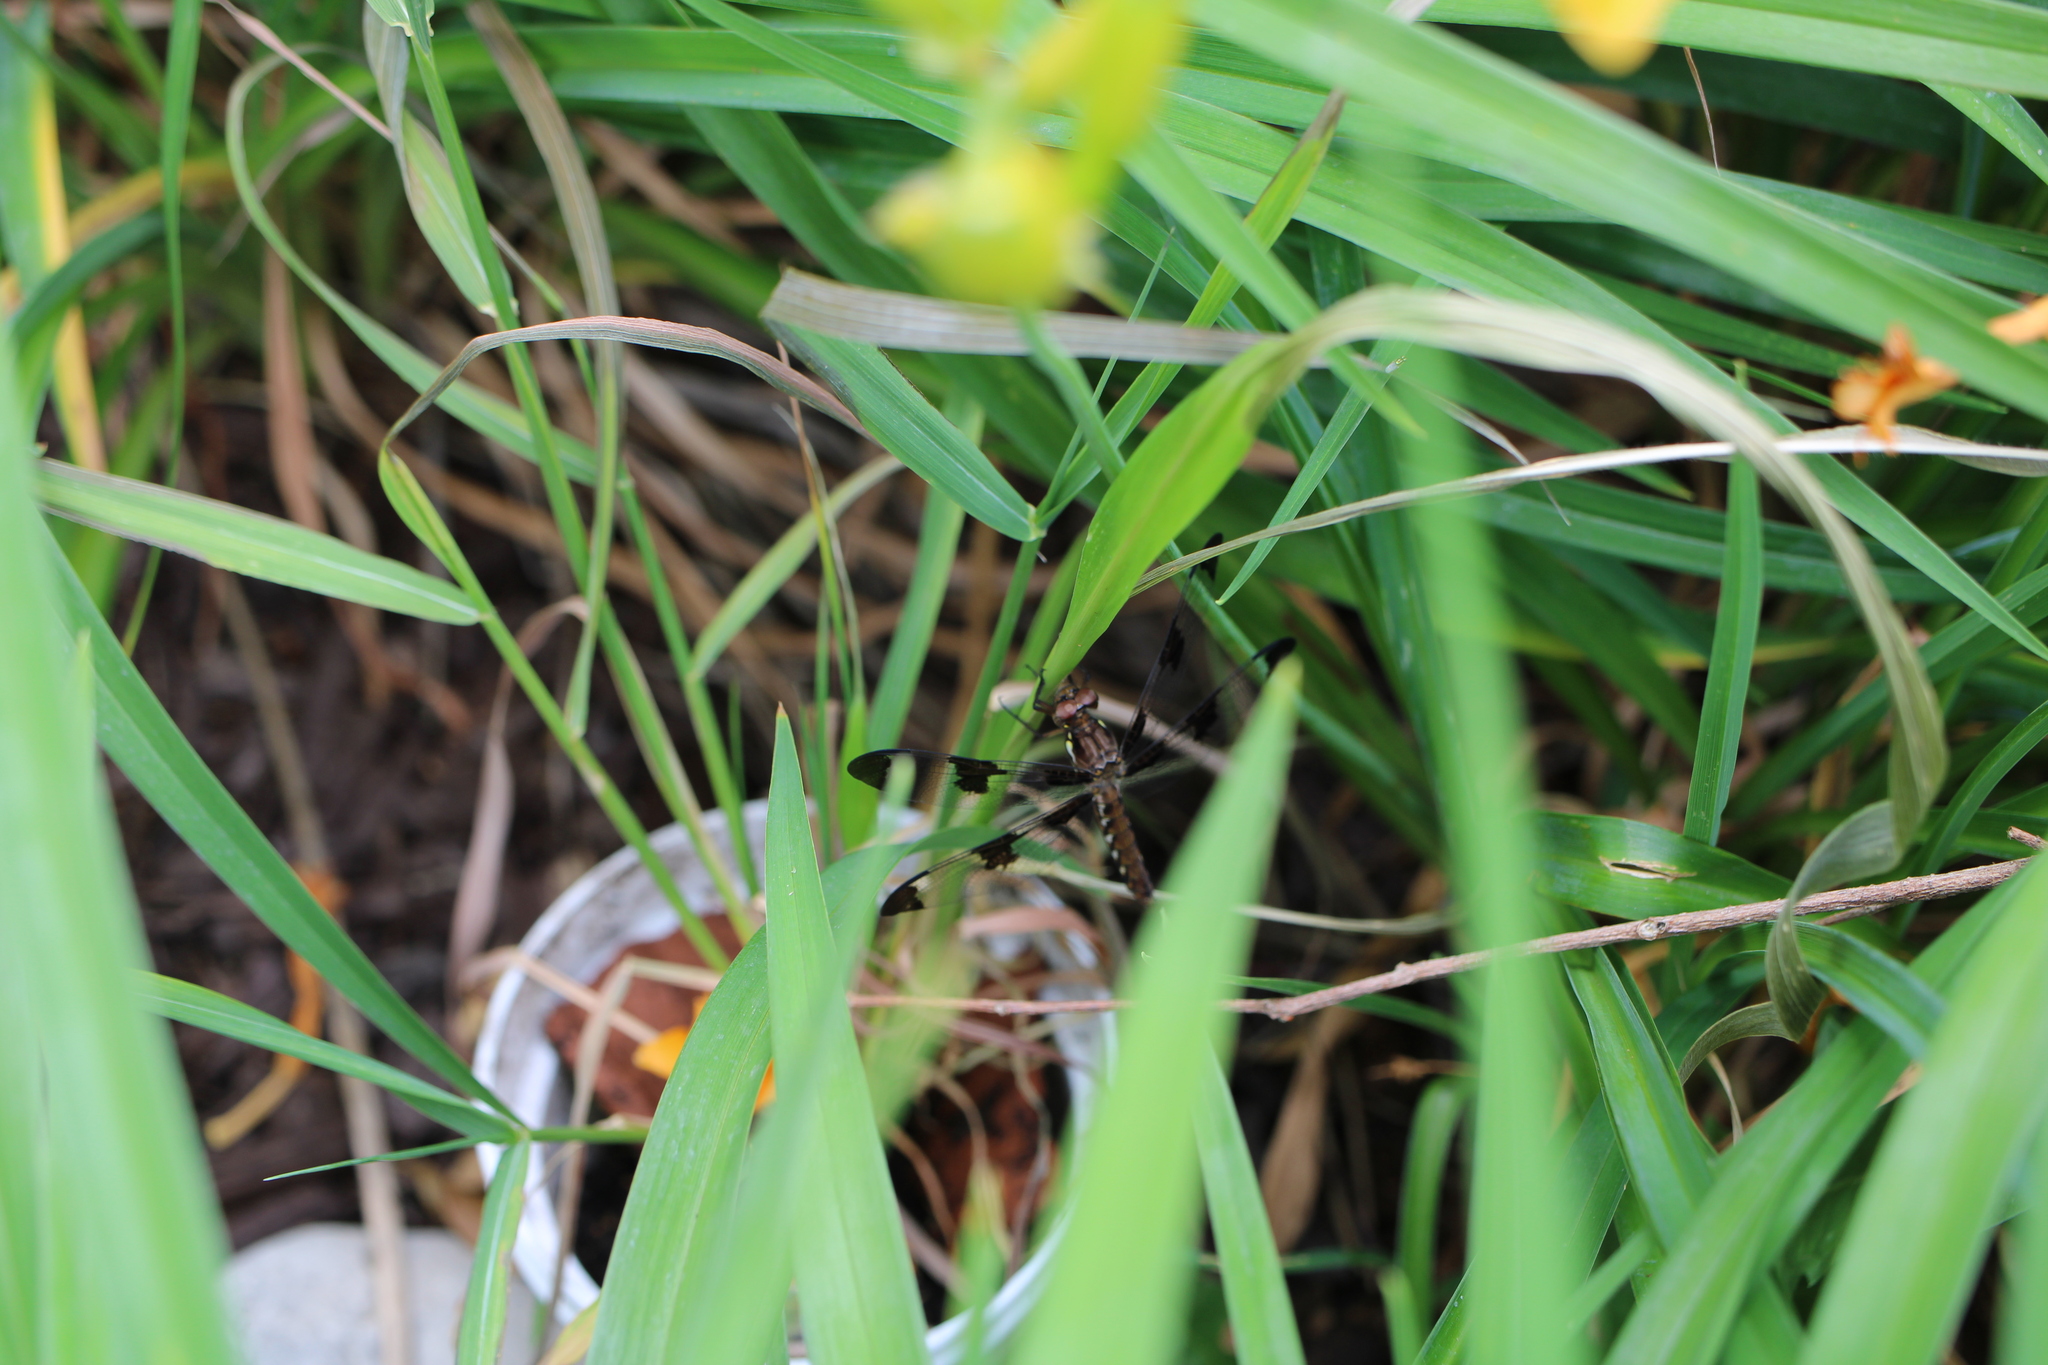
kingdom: Animalia
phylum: Arthropoda
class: Insecta
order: Odonata
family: Libellulidae
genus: Plathemis
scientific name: Plathemis lydia
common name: Common whitetail
